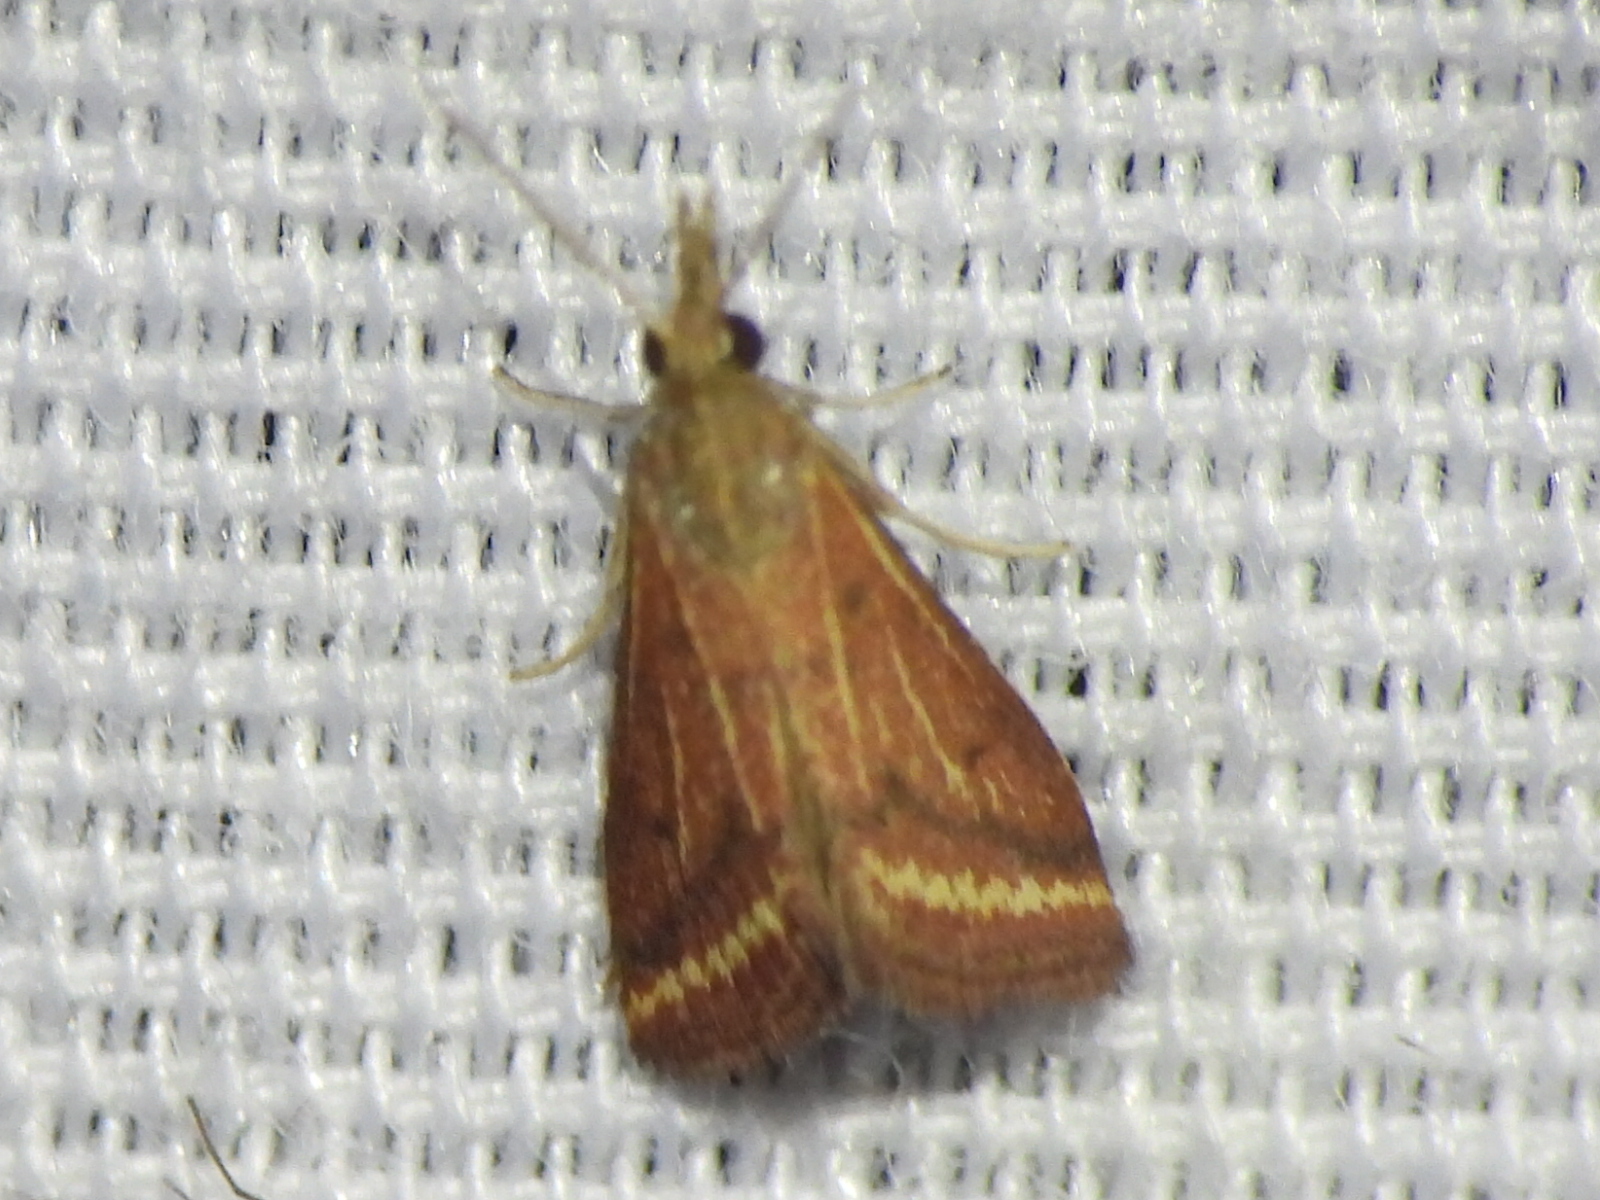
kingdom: Animalia
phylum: Arthropoda
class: Insecta
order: Lepidoptera
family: Crambidae
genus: Microtheoris
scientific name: Microtheoris ophionalis
